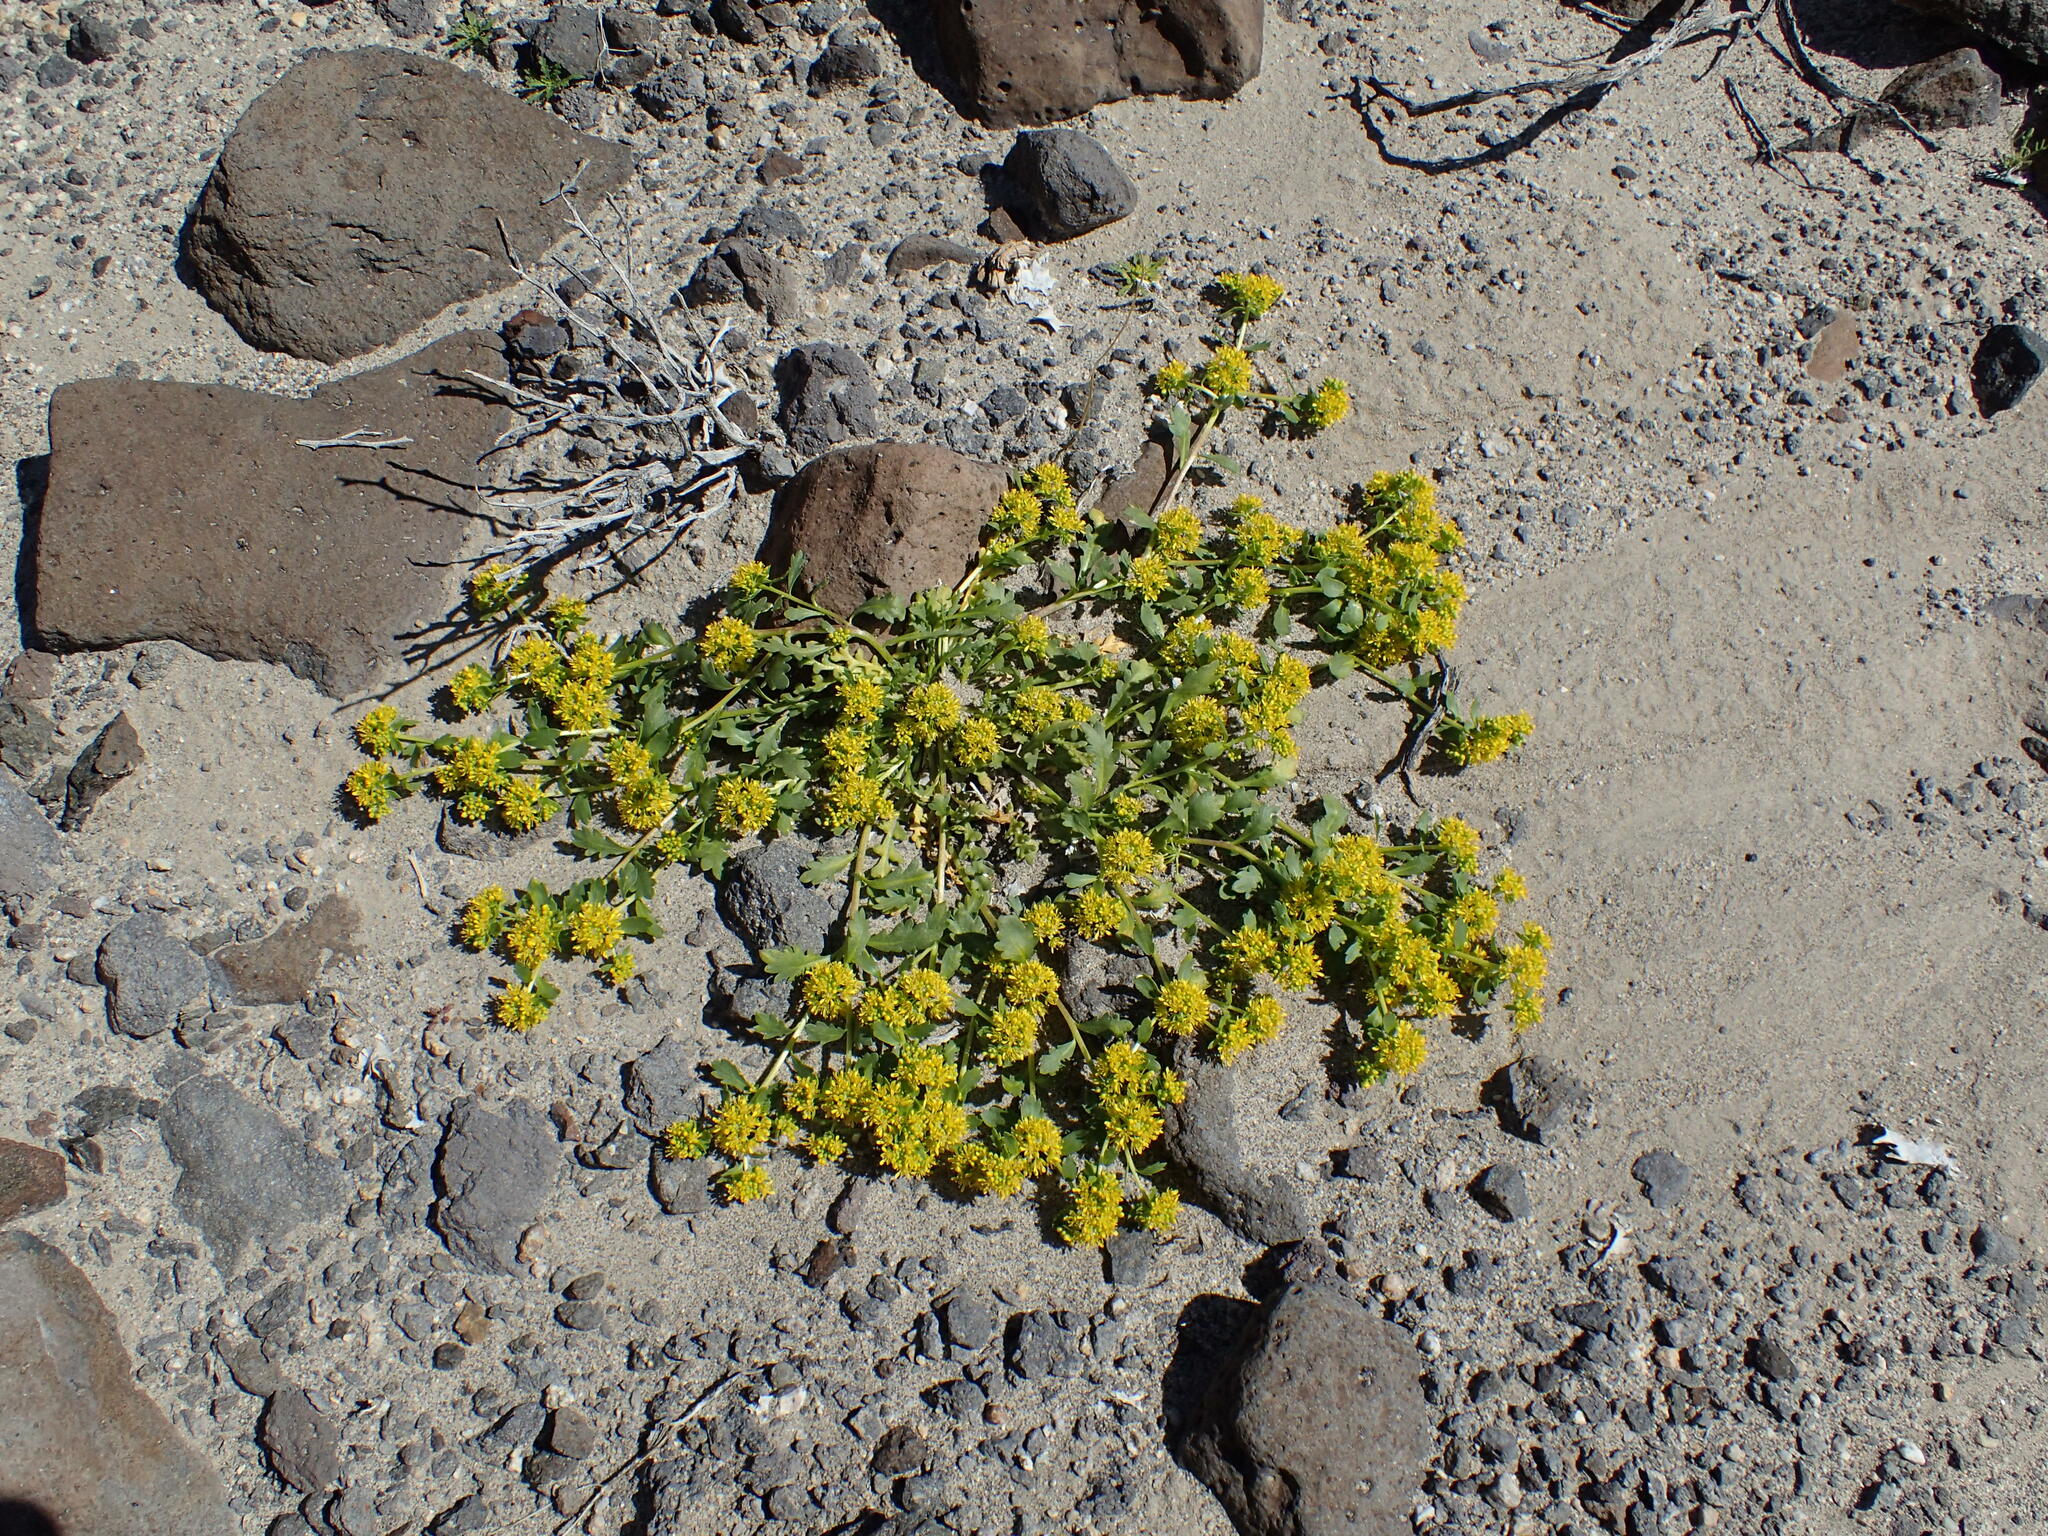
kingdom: Plantae
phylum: Tracheophyta
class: Magnoliopsida
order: Brassicales
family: Brassicaceae
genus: Lepidium
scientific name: Lepidium flavum
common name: Yellow pepperwort
